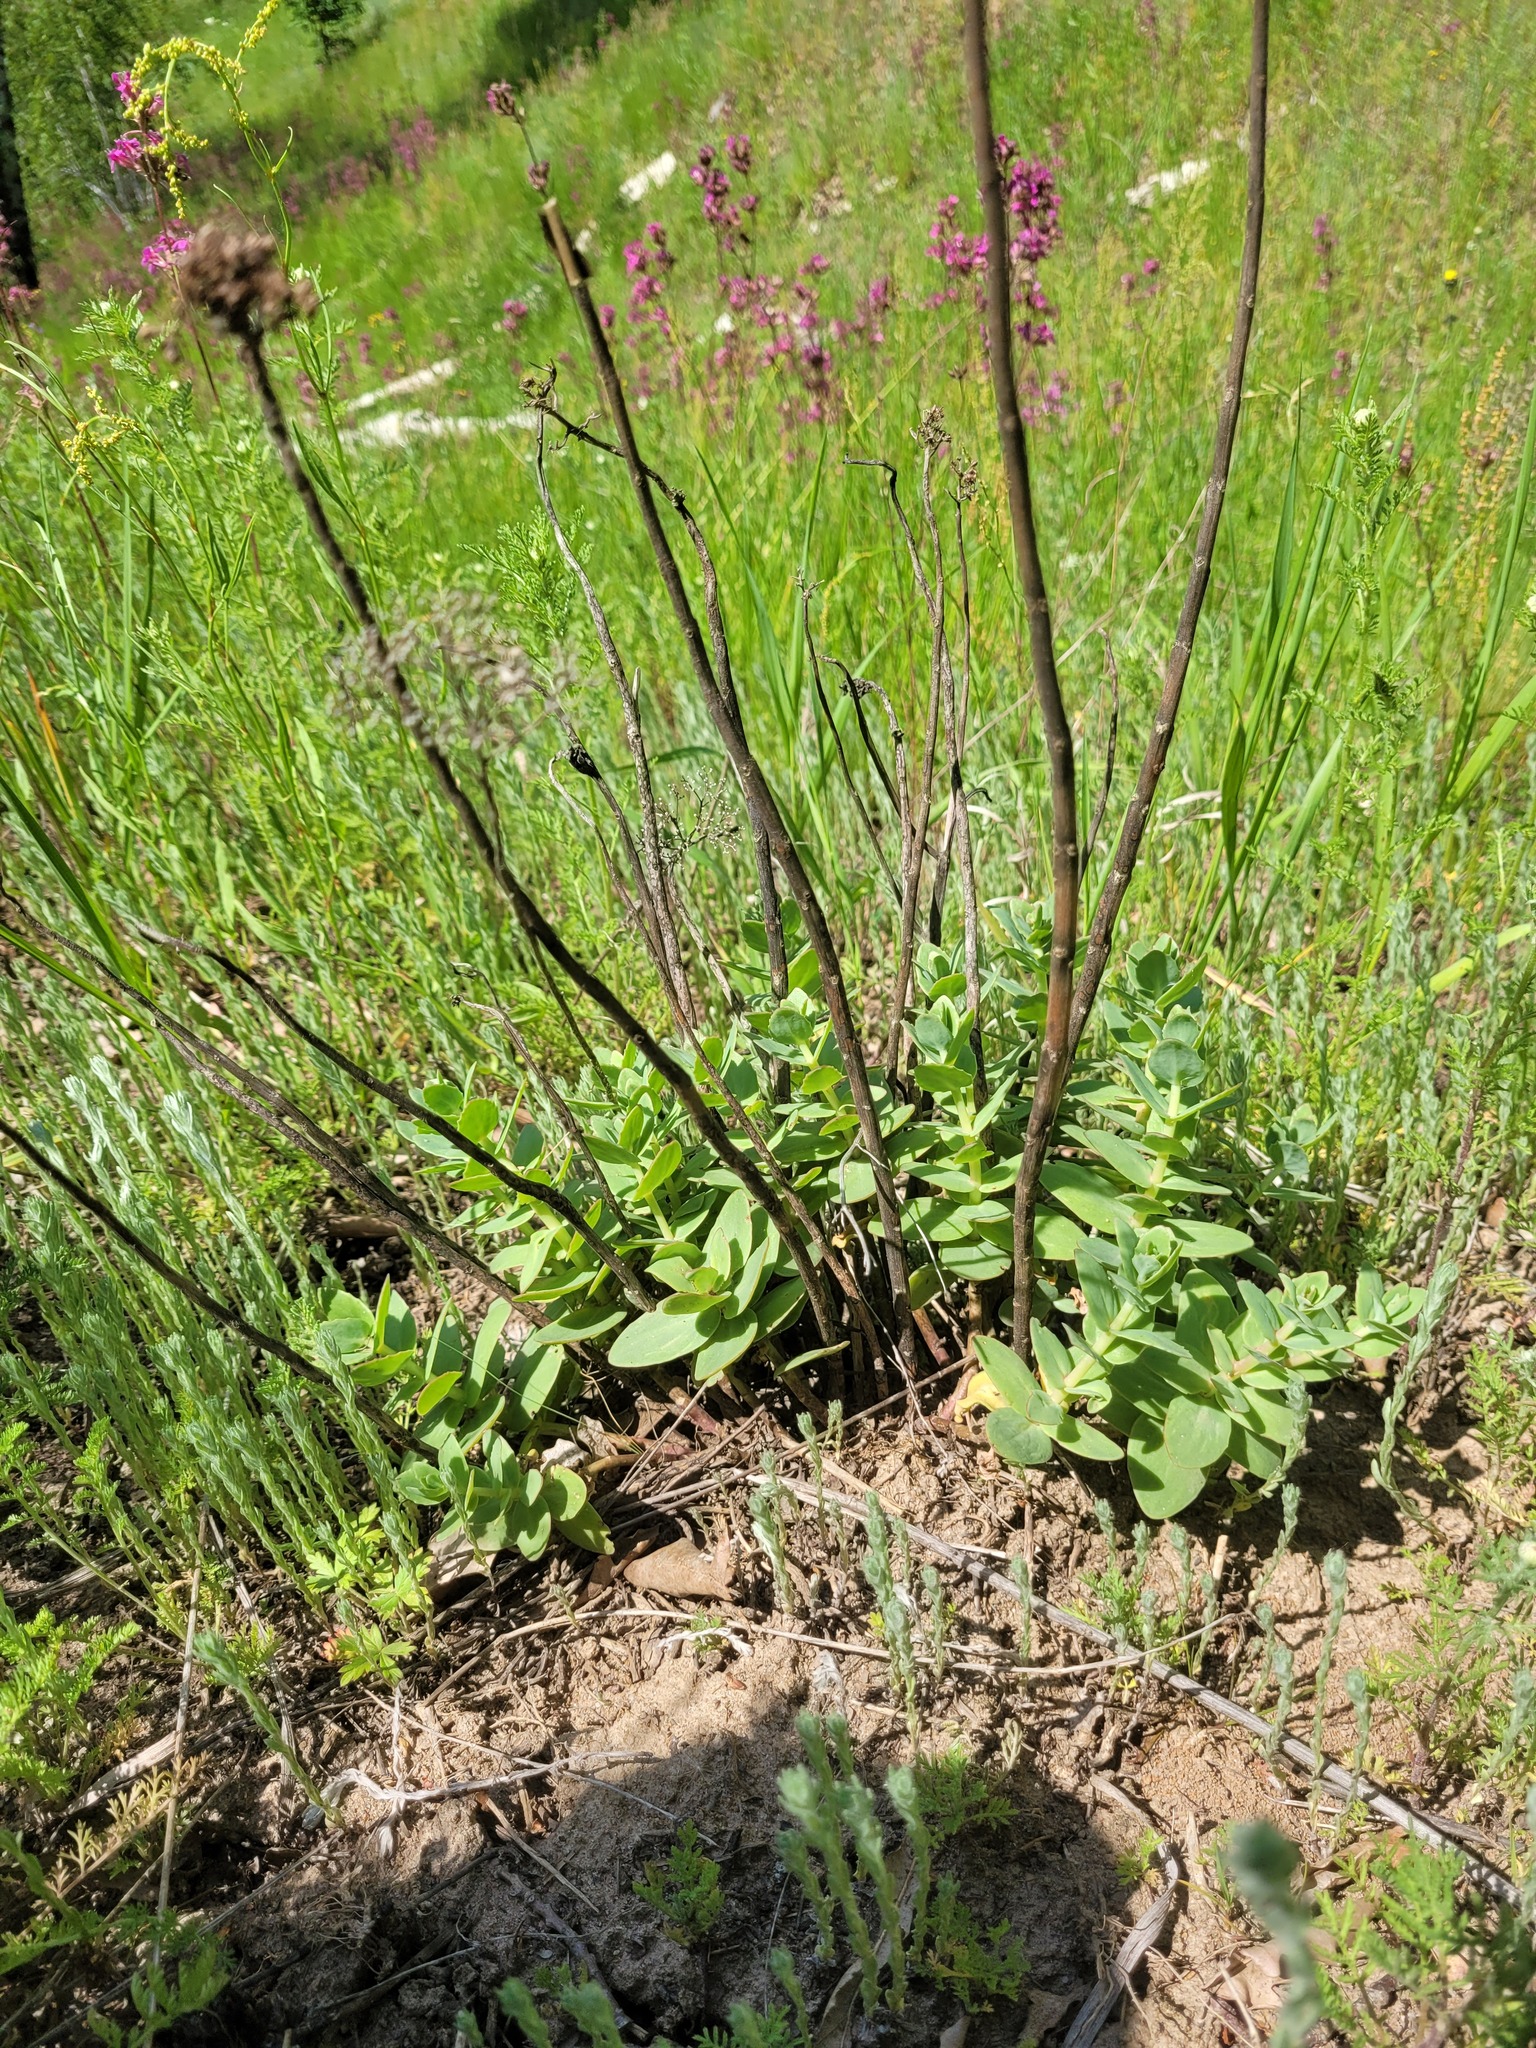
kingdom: Plantae
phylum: Tracheophyta
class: Magnoliopsida
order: Saxifragales
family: Crassulaceae
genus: Hylotelephium
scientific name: Hylotelephium maximum
